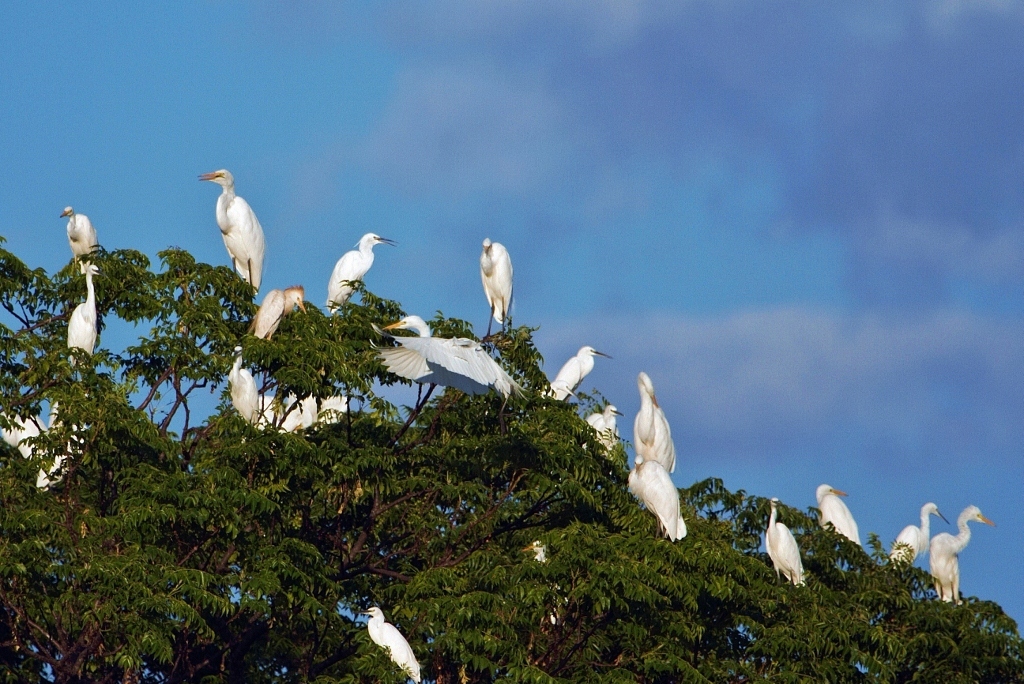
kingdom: Animalia
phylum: Chordata
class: Aves
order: Pelecaniformes
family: Ardeidae
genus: Egretta
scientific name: Egretta garzetta
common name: Little egret
